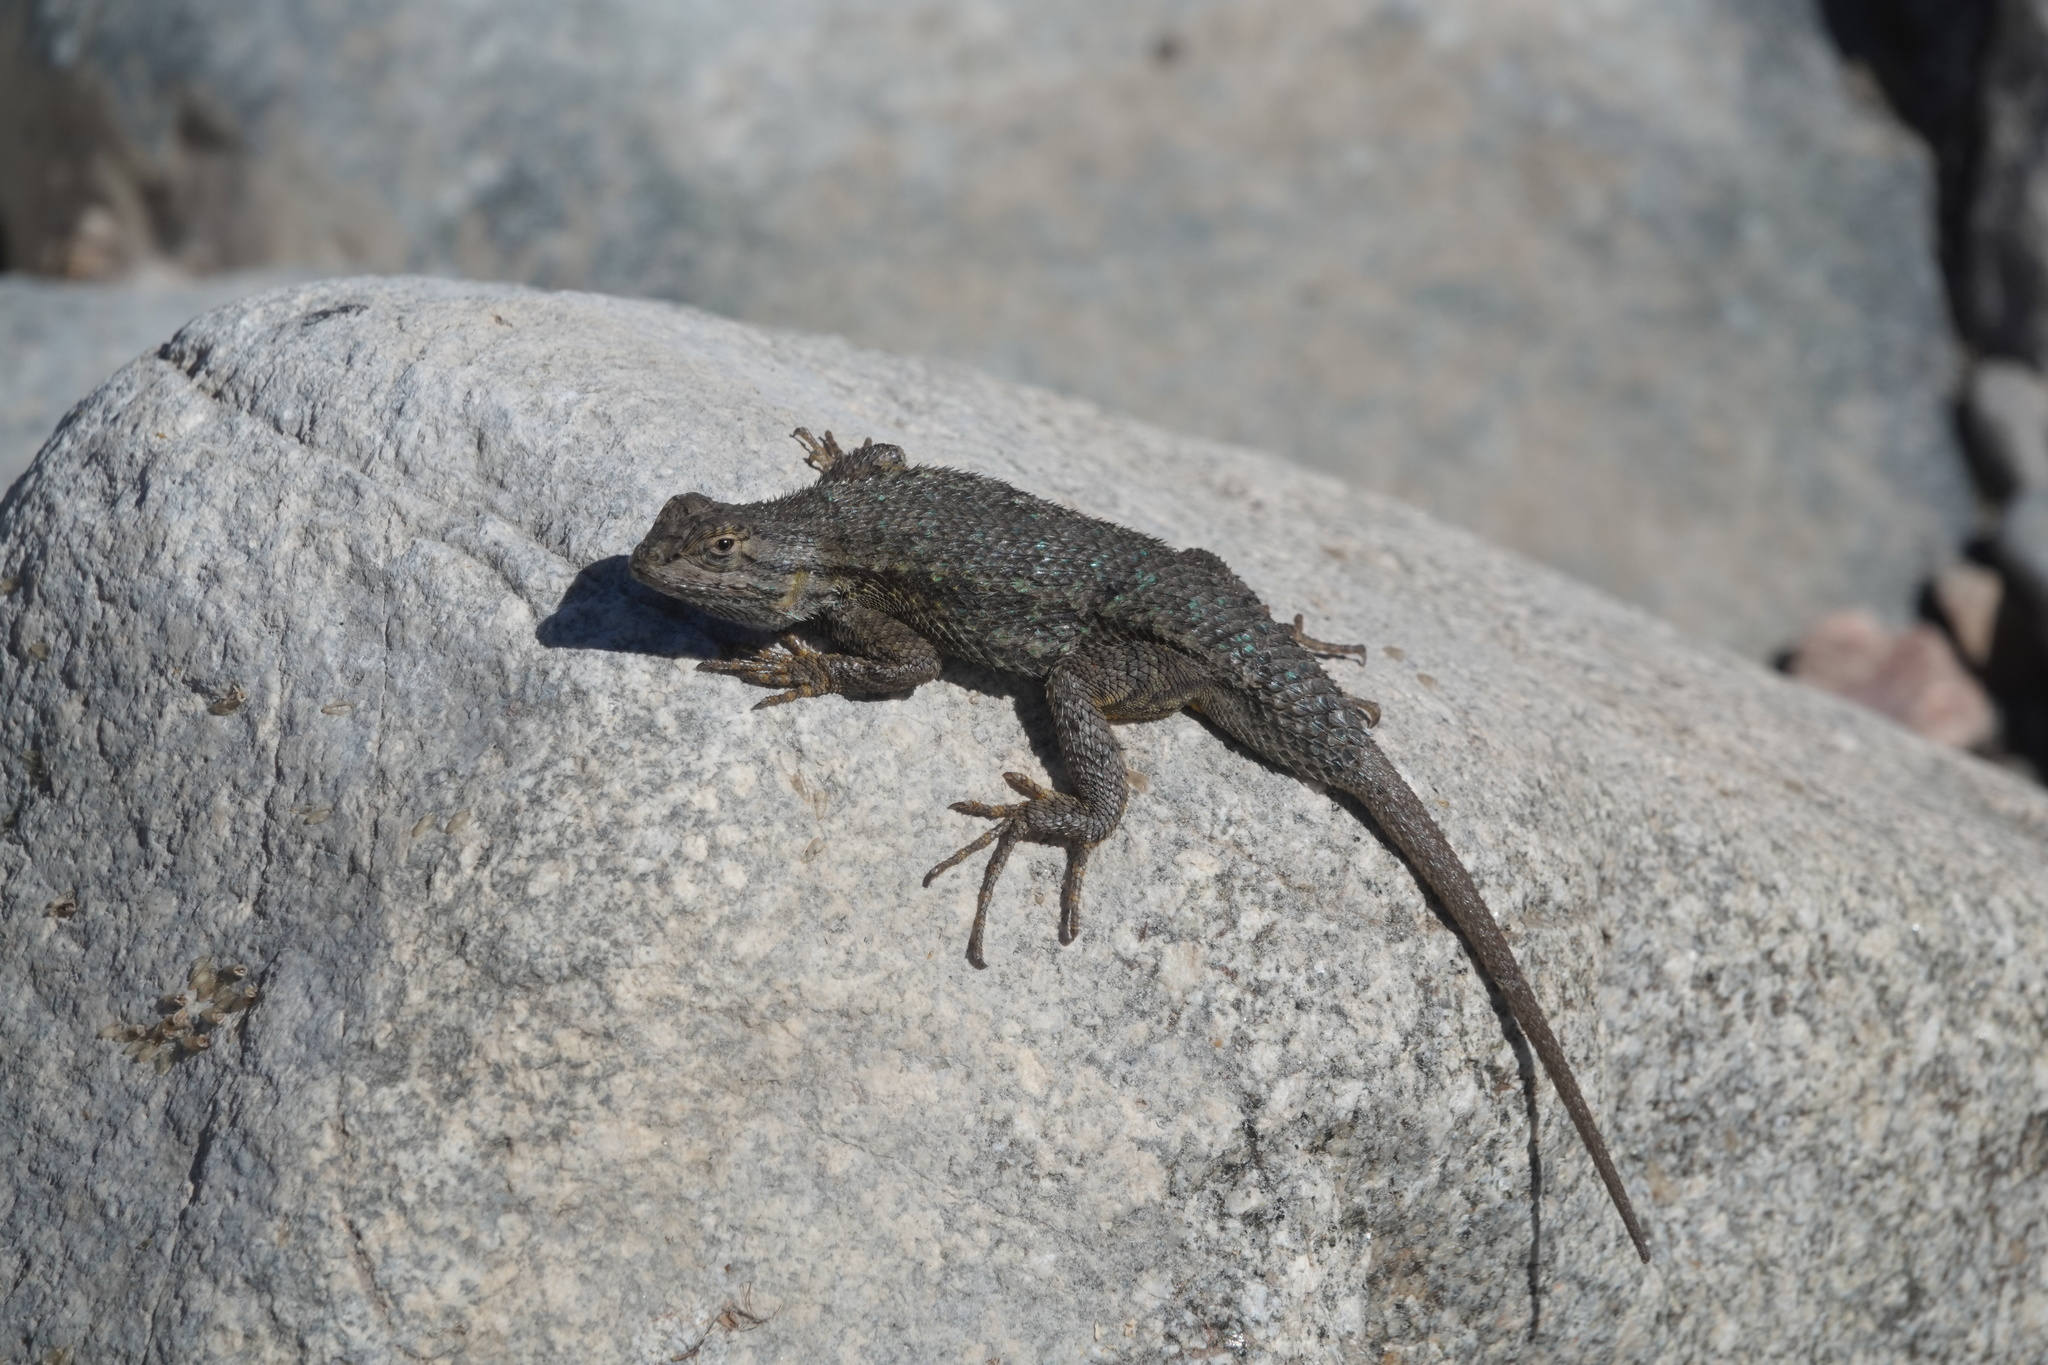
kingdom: Animalia
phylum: Chordata
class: Squamata
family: Phrynosomatidae
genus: Sceloporus
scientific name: Sceloporus occidentalis
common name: Western fence lizard
